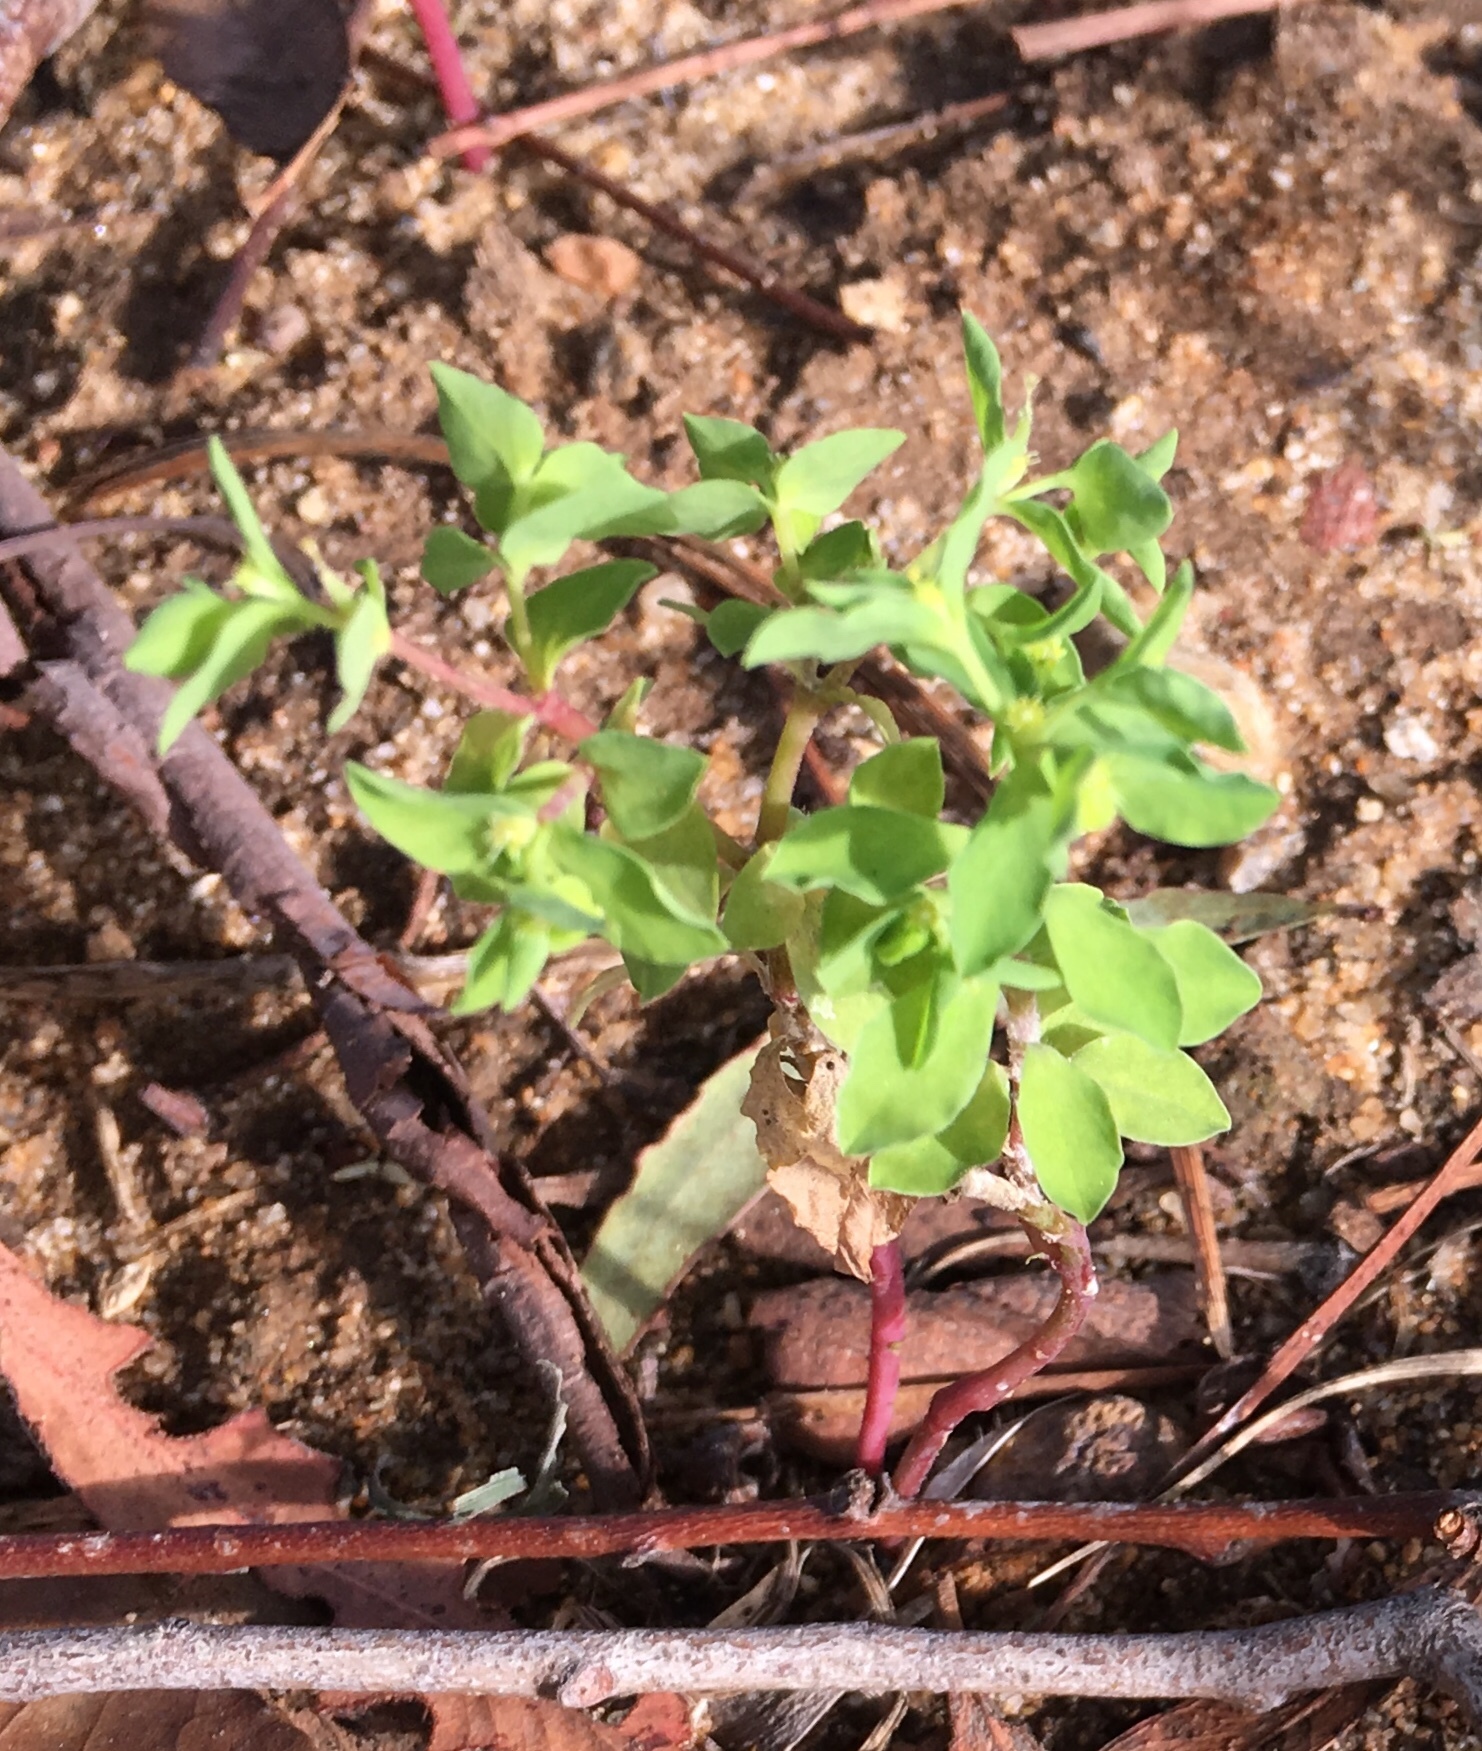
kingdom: Plantae
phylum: Tracheophyta
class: Magnoliopsida
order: Malpighiales
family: Euphorbiaceae
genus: Euphorbia
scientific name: Euphorbia peplus
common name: Petty spurge
